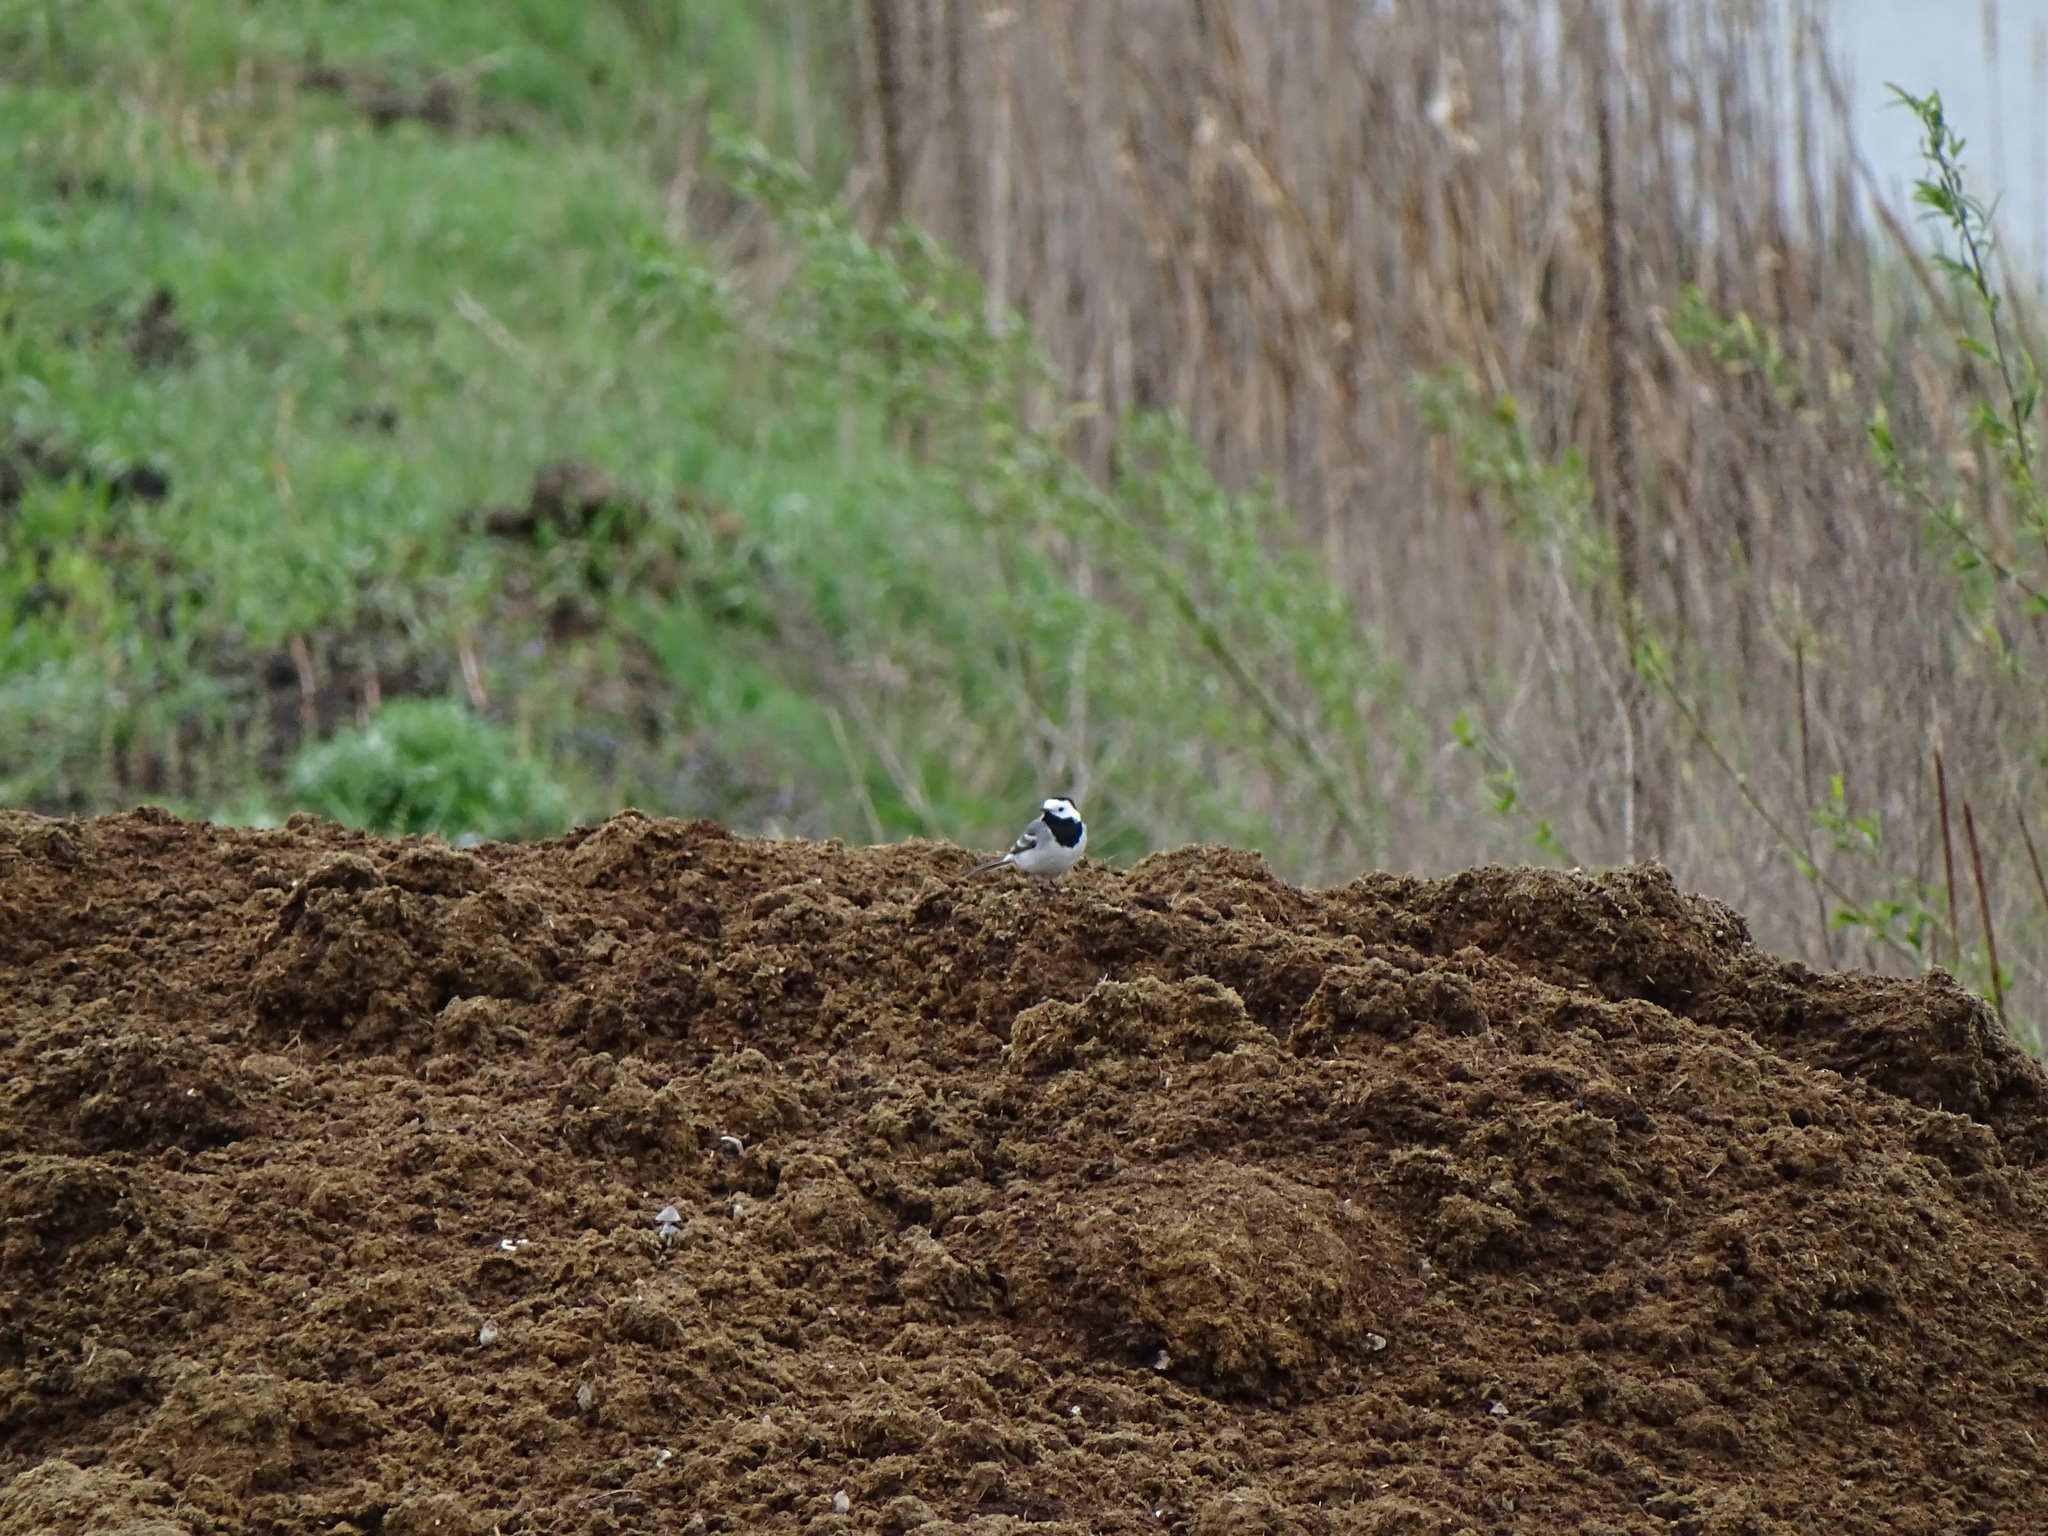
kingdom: Animalia
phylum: Chordata
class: Aves
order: Passeriformes
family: Motacillidae
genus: Motacilla
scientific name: Motacilla alba
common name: White wagtail
